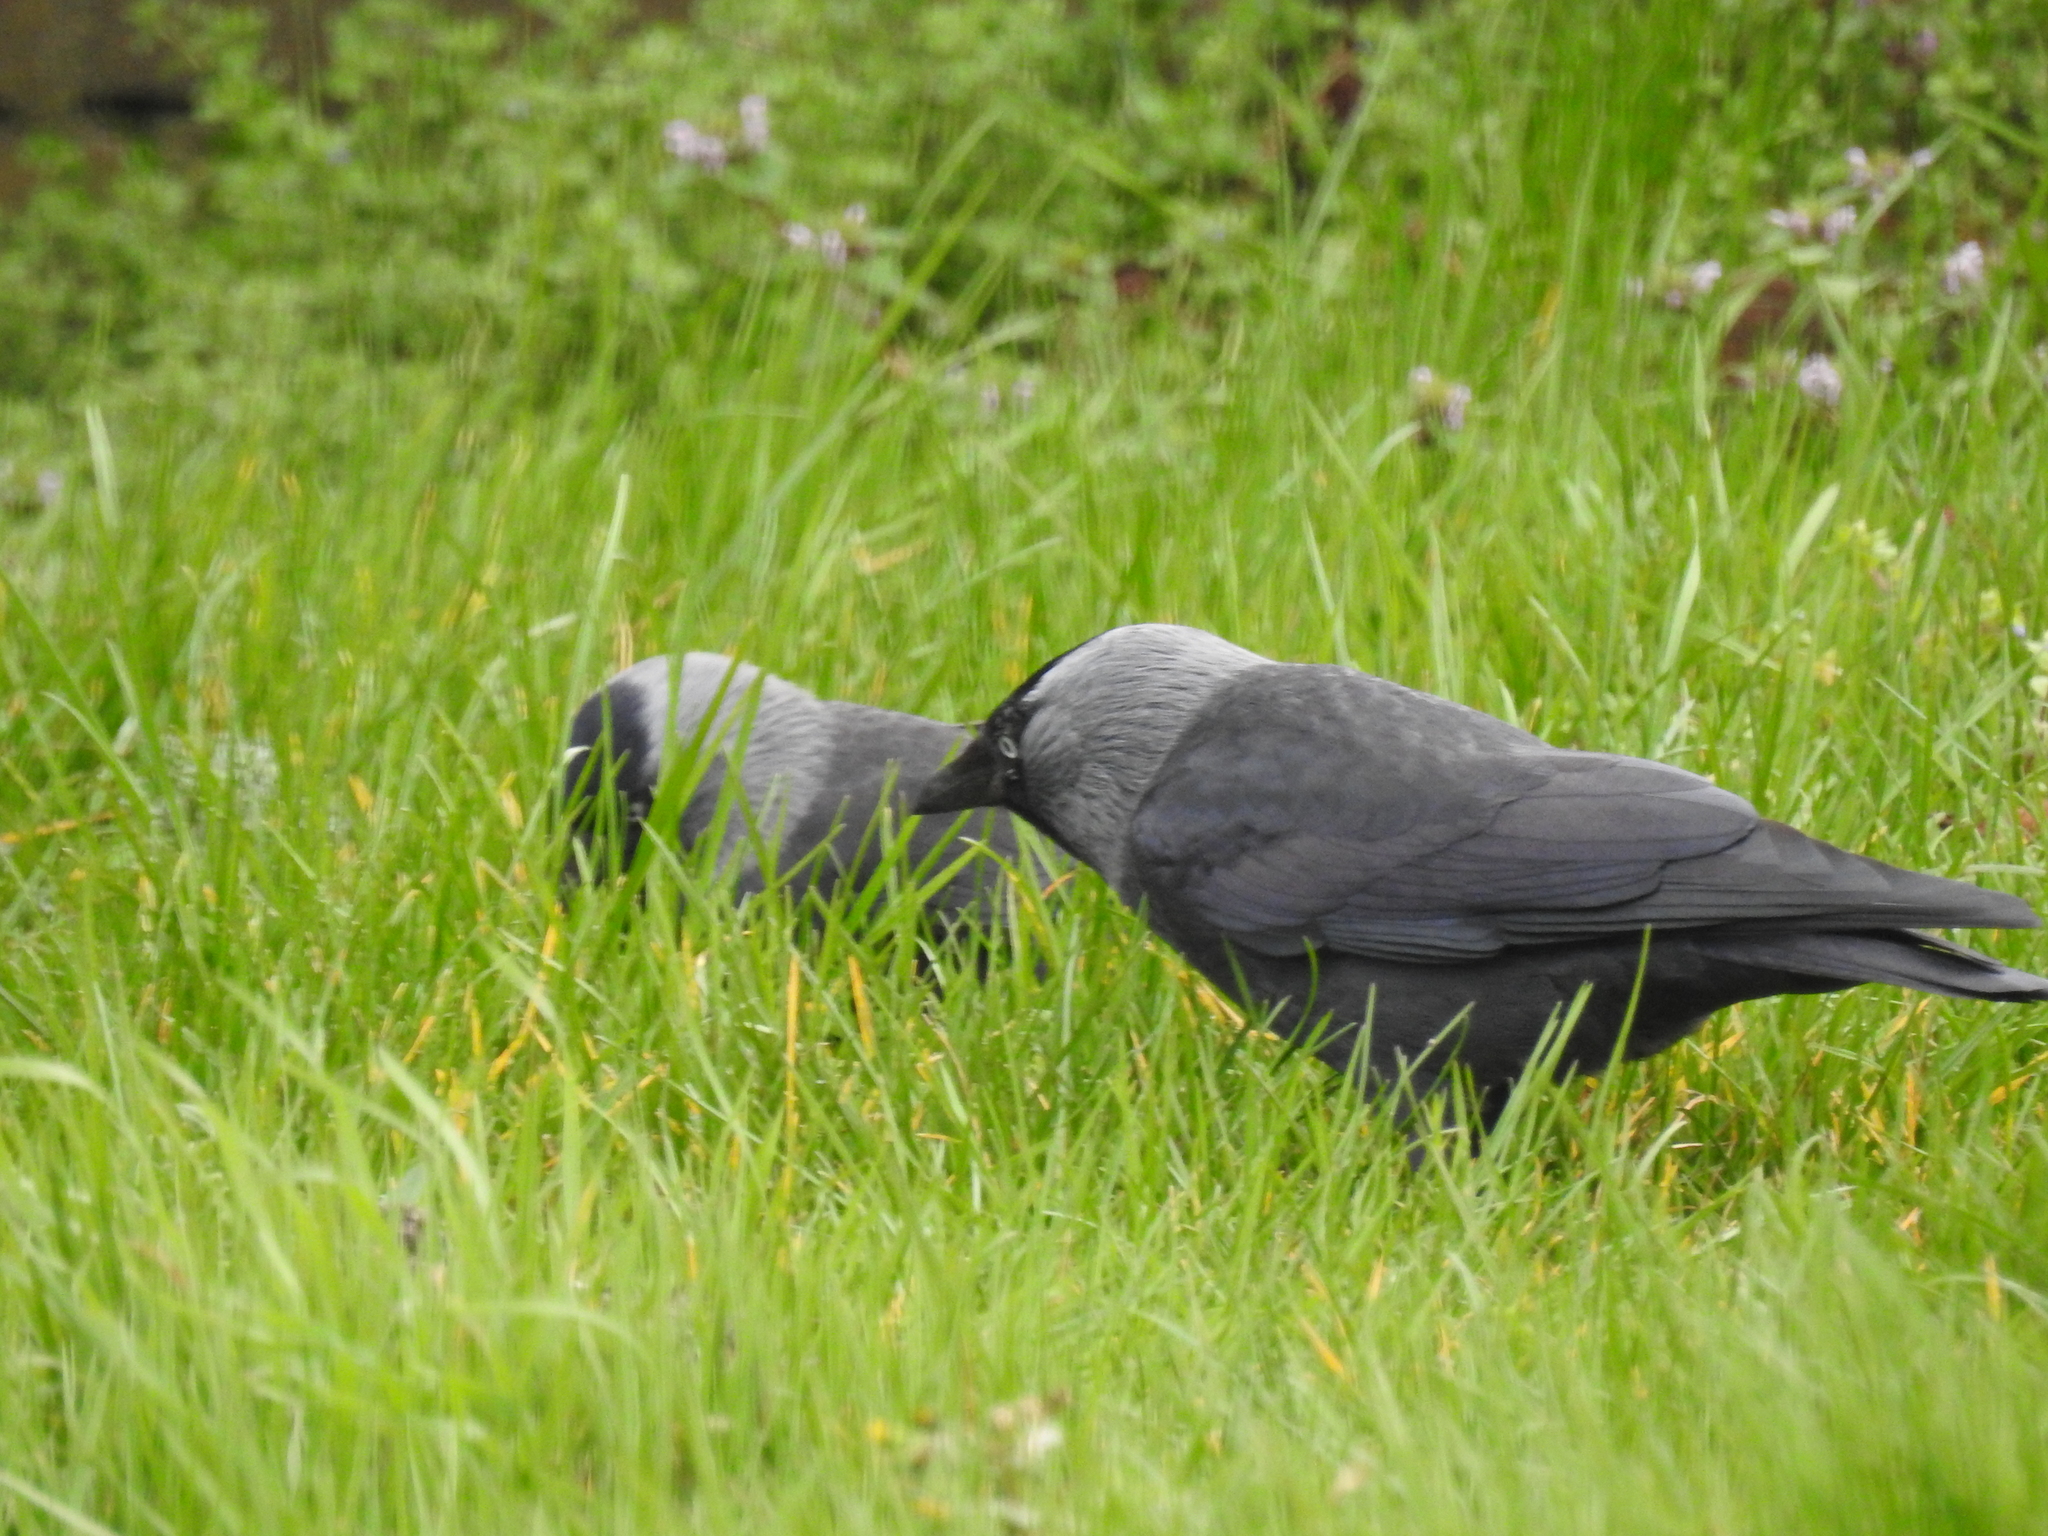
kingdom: Animalia
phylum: Chordata
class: Aves
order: Passeriformes
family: Corvidae
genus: Coloeus
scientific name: Coloeus monedula
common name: Western jackdaw
